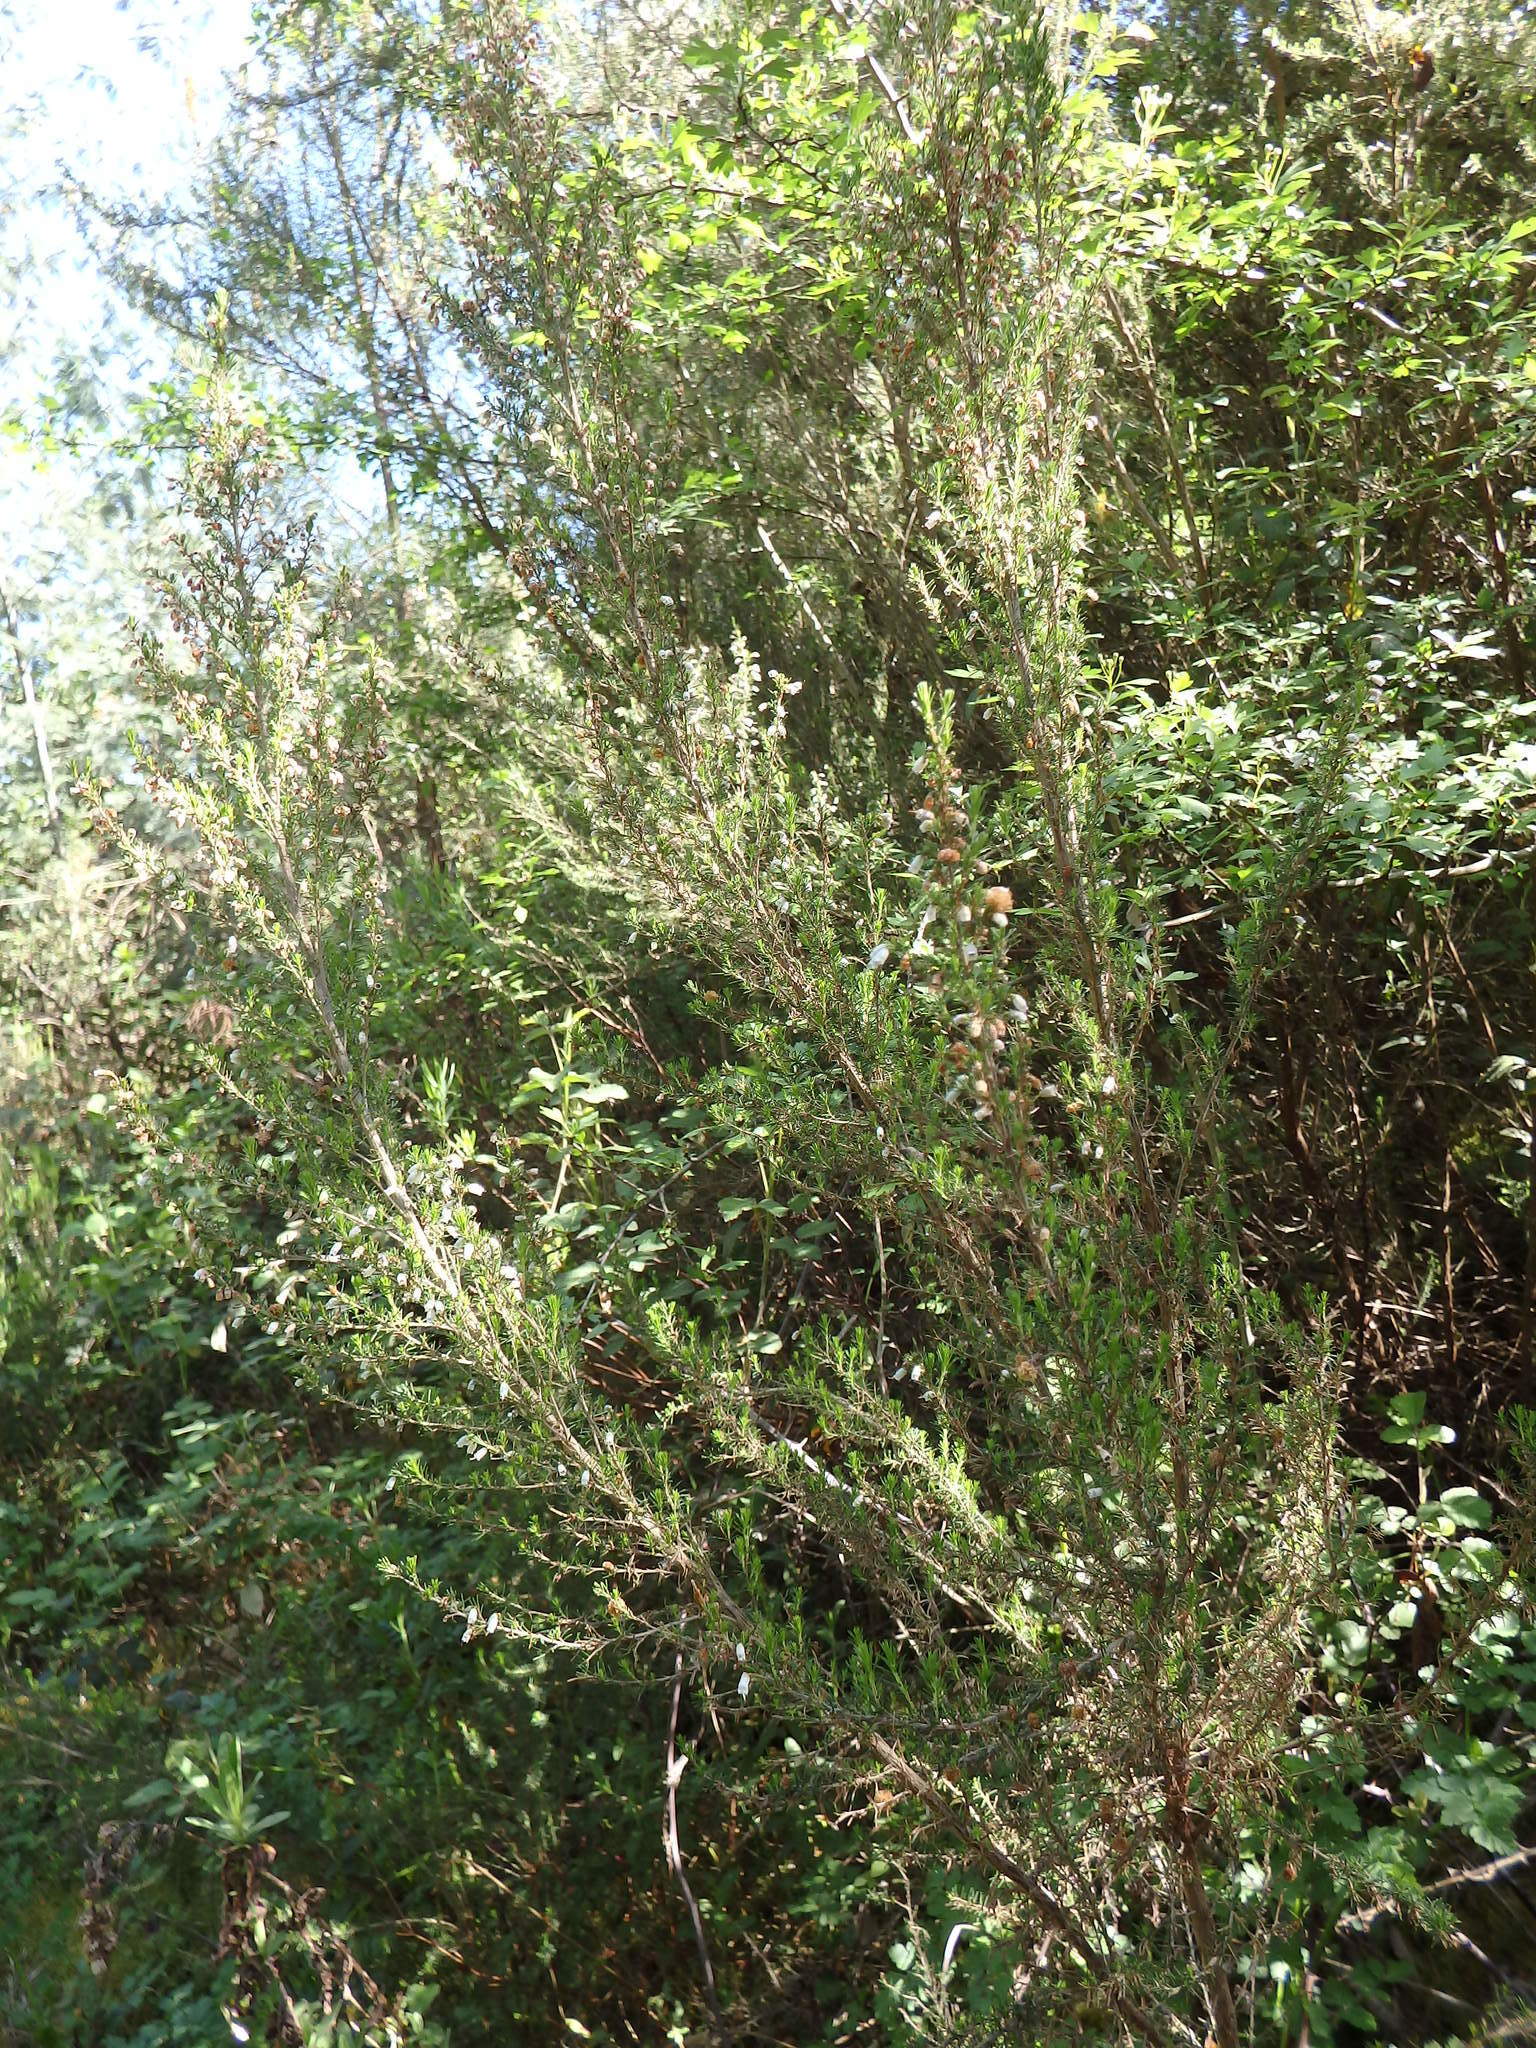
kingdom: Plantae
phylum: Tracheophyta
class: Magnoliopsida
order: Ericales
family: Ericaceae
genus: Erica
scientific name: Erica arborea
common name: Tree heath
